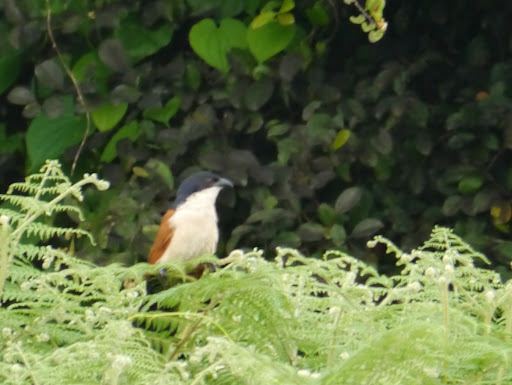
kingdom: Animalia
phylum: Chordata
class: Aves
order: Cuculiformes
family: Cuculidae
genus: Centropus
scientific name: Centropus senegalensis
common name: Senegal coucal
